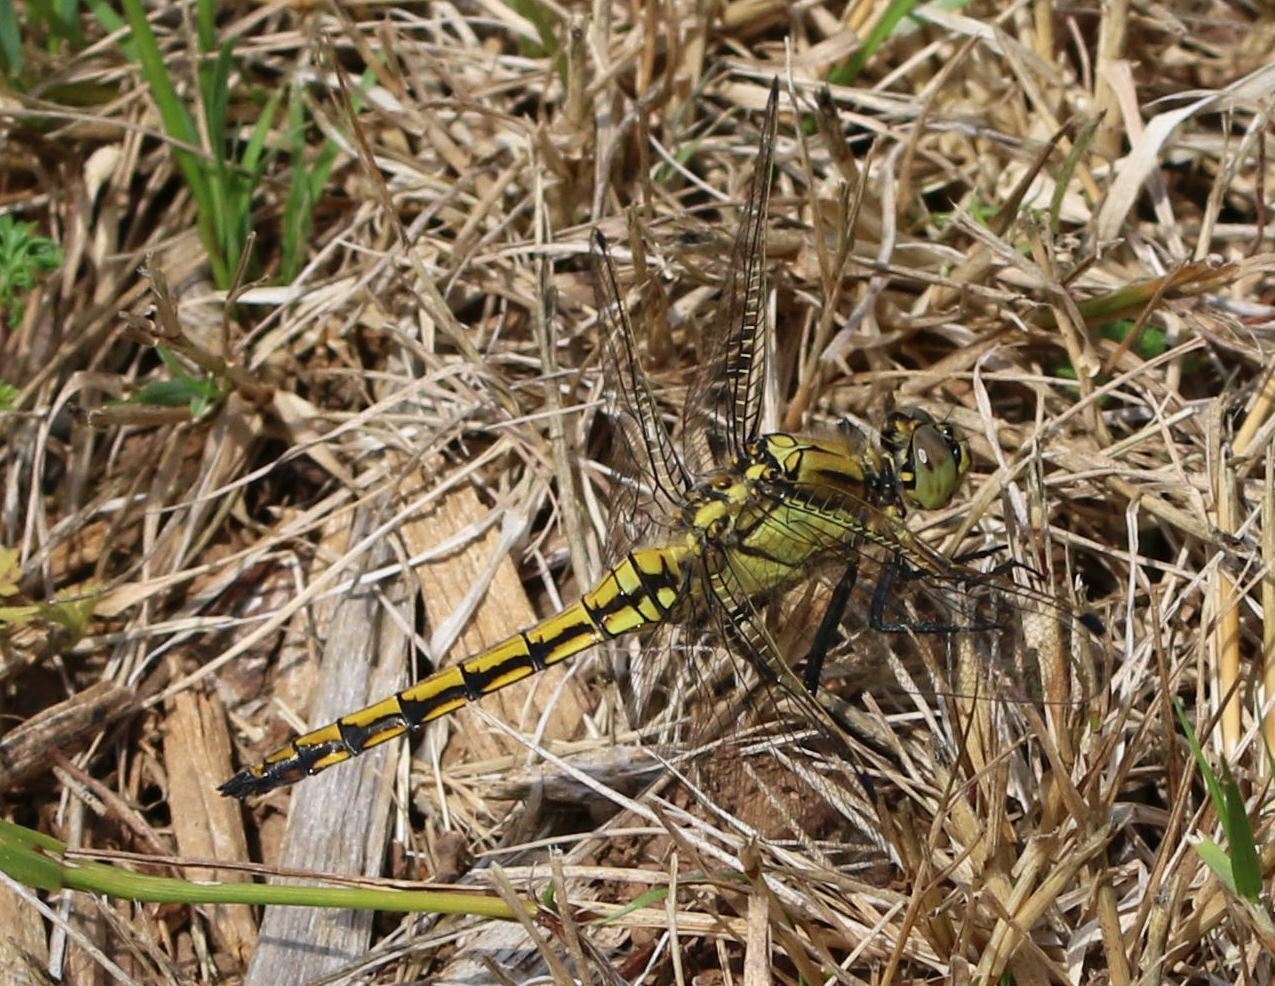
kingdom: Animalia
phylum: Arthropoda
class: Insecta
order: Odonata
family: Libellulidae
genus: Orthetrum
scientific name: Orthetrum cancellatum
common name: Black-tailed skimmer
